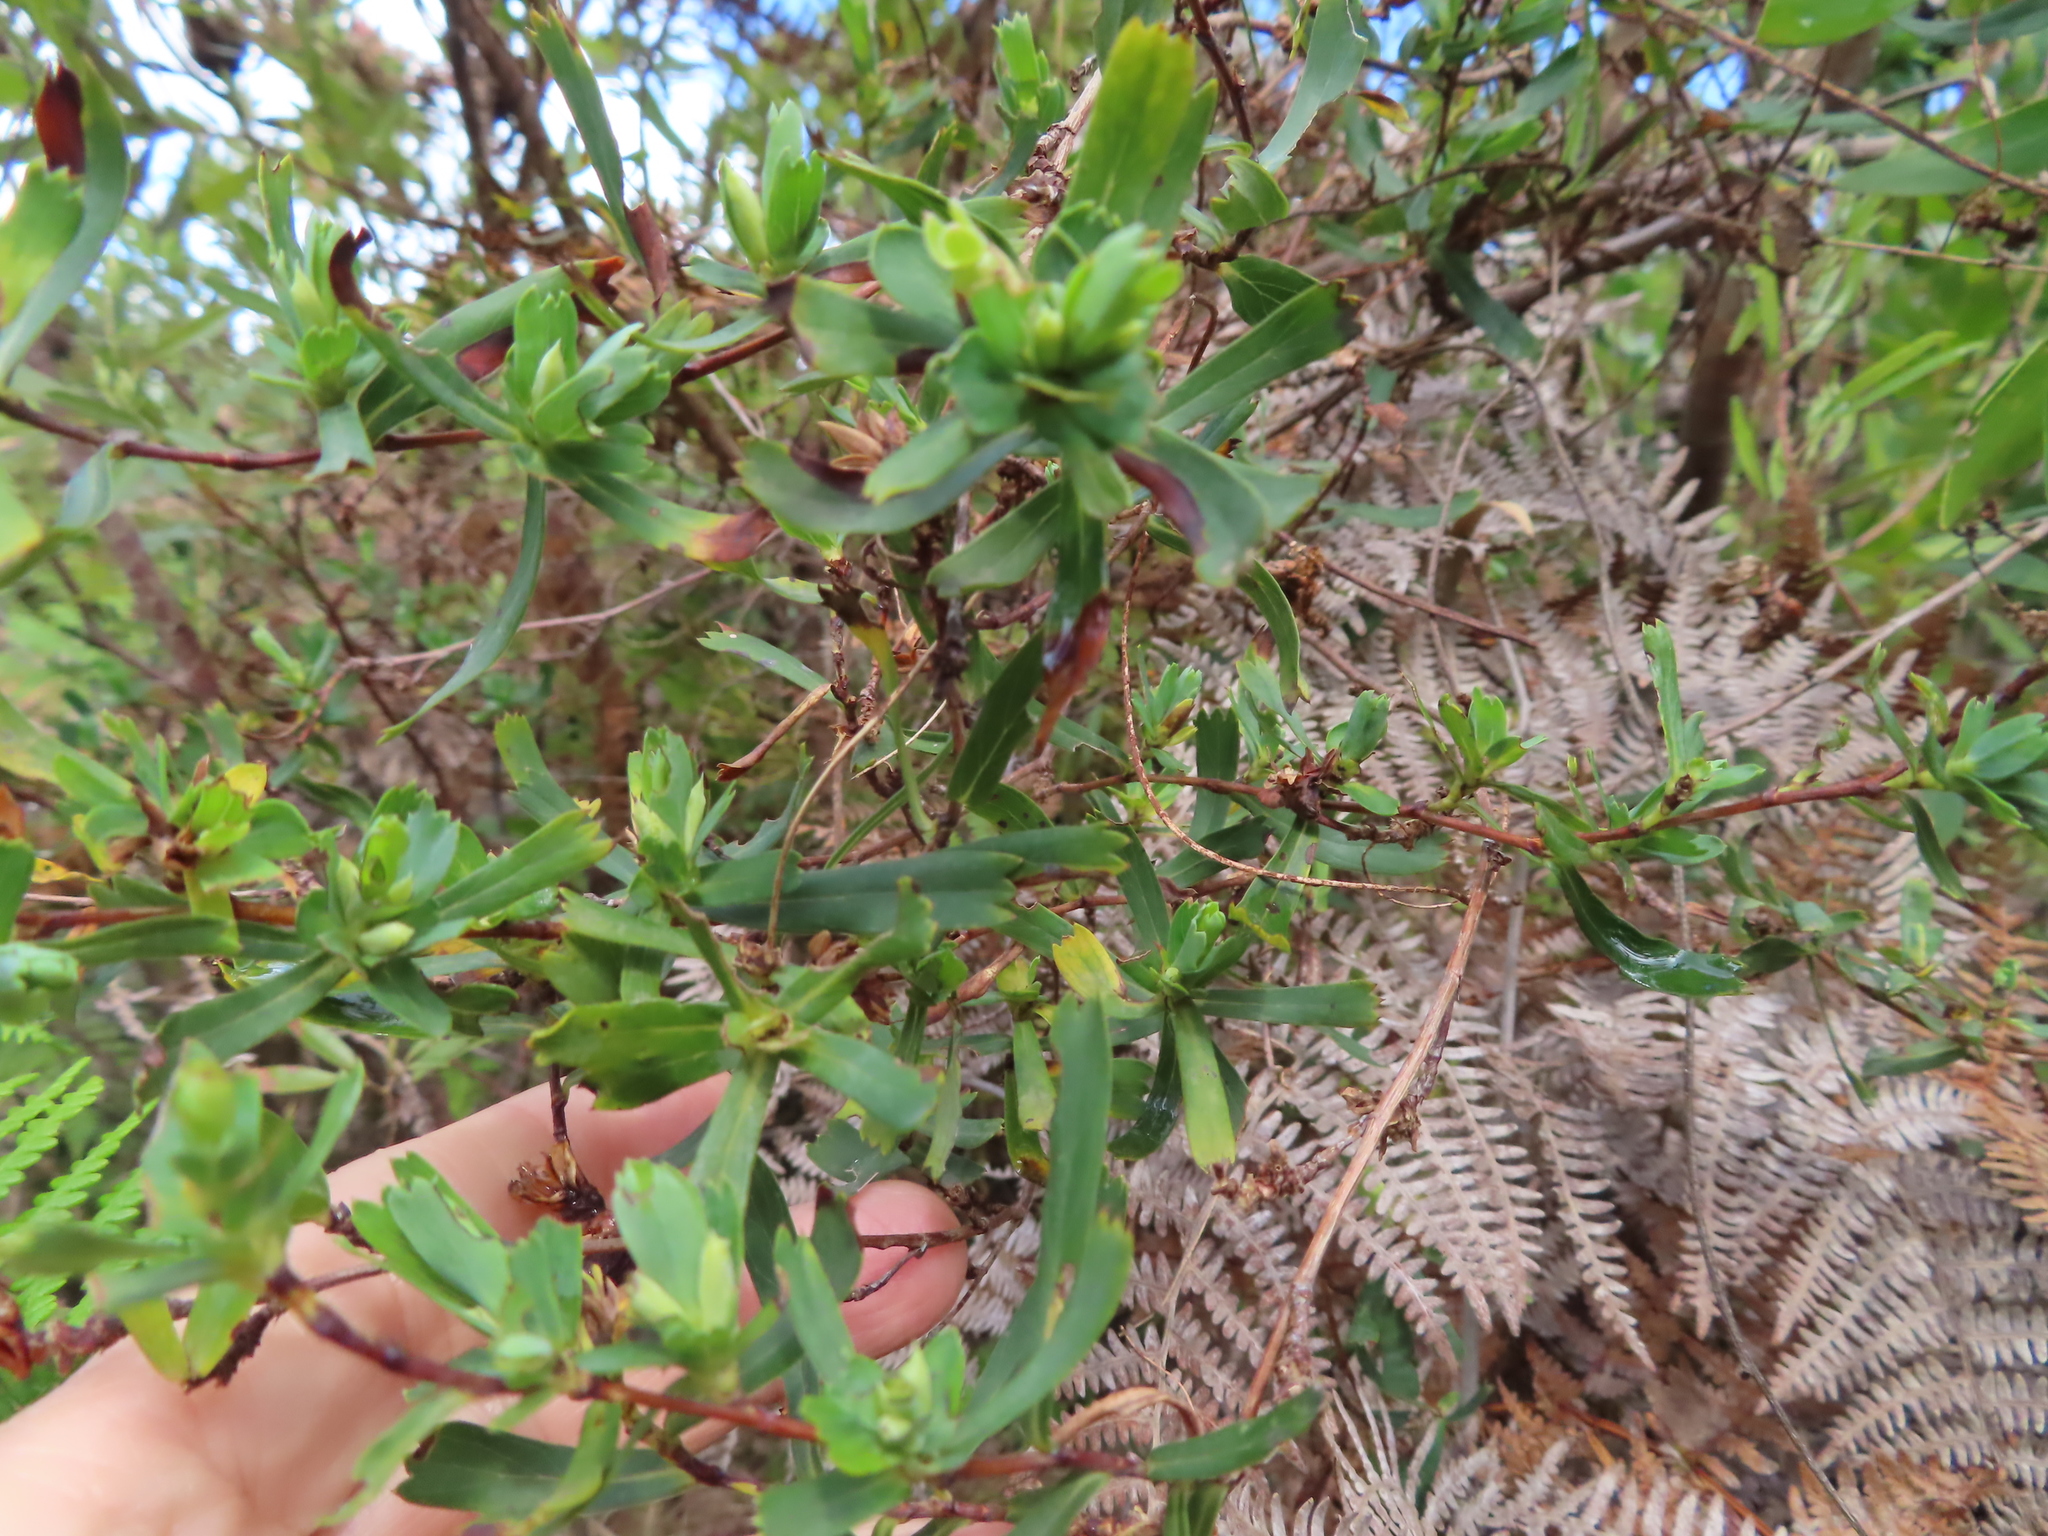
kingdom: Plantae
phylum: Tracheophyta
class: Magnoliopsida
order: Rosales
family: Rosaceae
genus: Cliffortia
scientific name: Cliffortia cuneata
